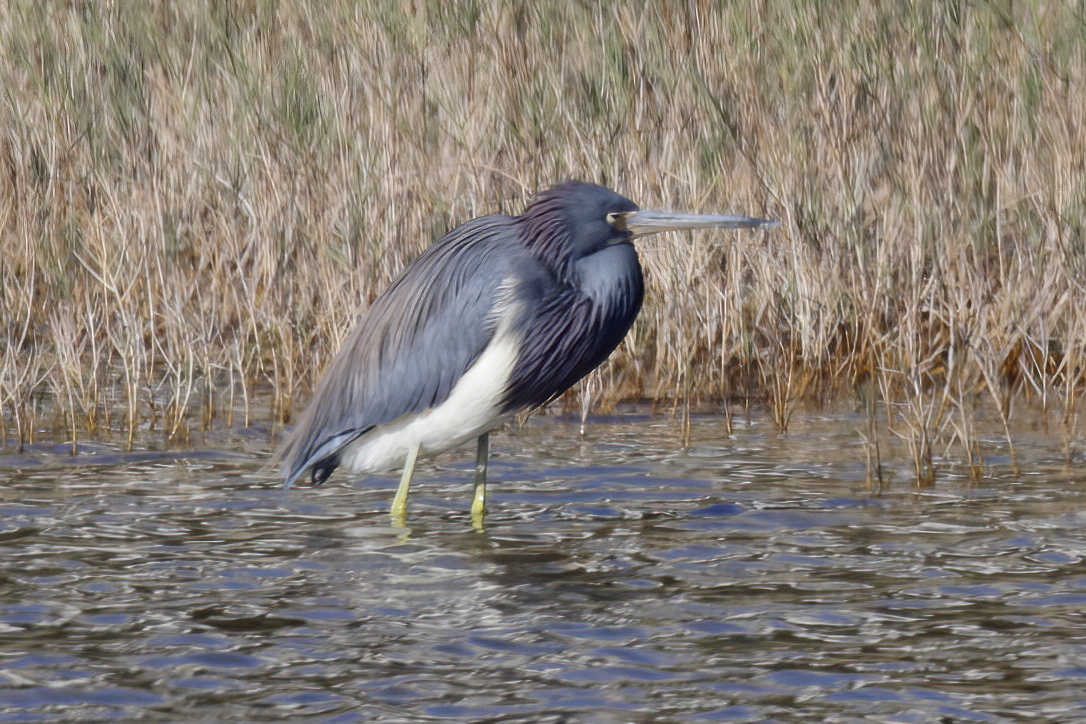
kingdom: Animalia
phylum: Chordata
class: Aves
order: Pelecaniformes
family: Ardeidae
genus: Egretta
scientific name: Egretta tricolor
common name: Tricolored heron
